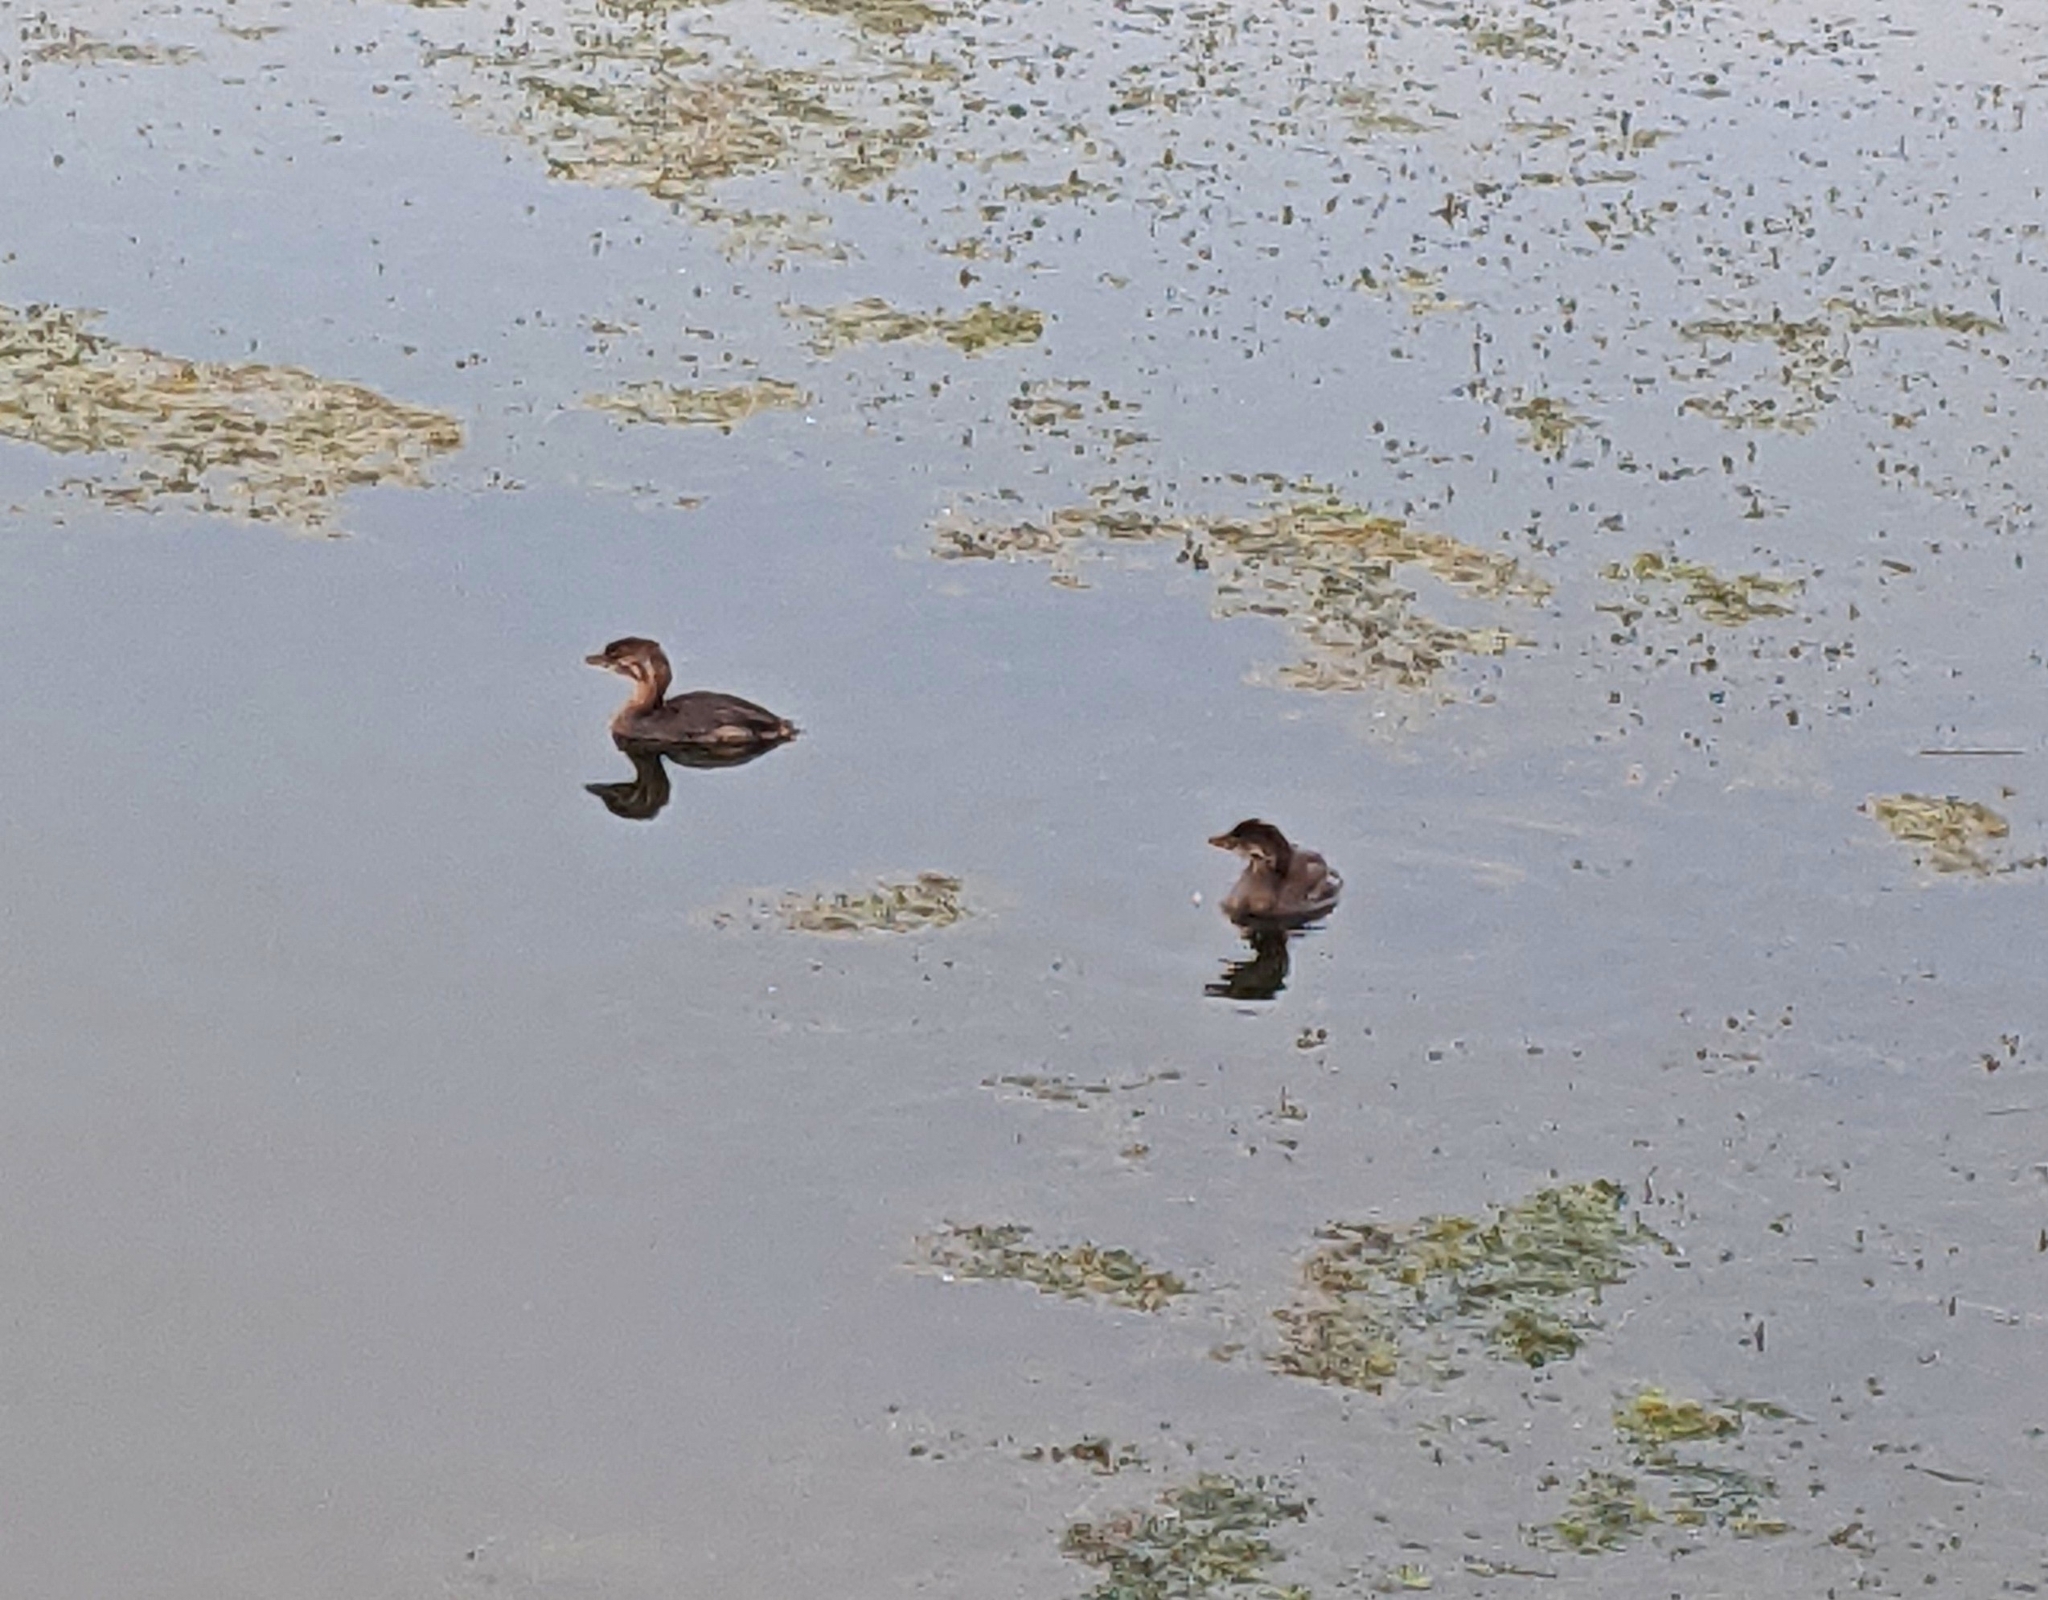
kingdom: Animalia
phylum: Chordata
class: Aves
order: Podicipediformes
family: Podicipedidae
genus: Podilymbus
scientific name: Podilymbus podiceps
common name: Pied-billed grebe
